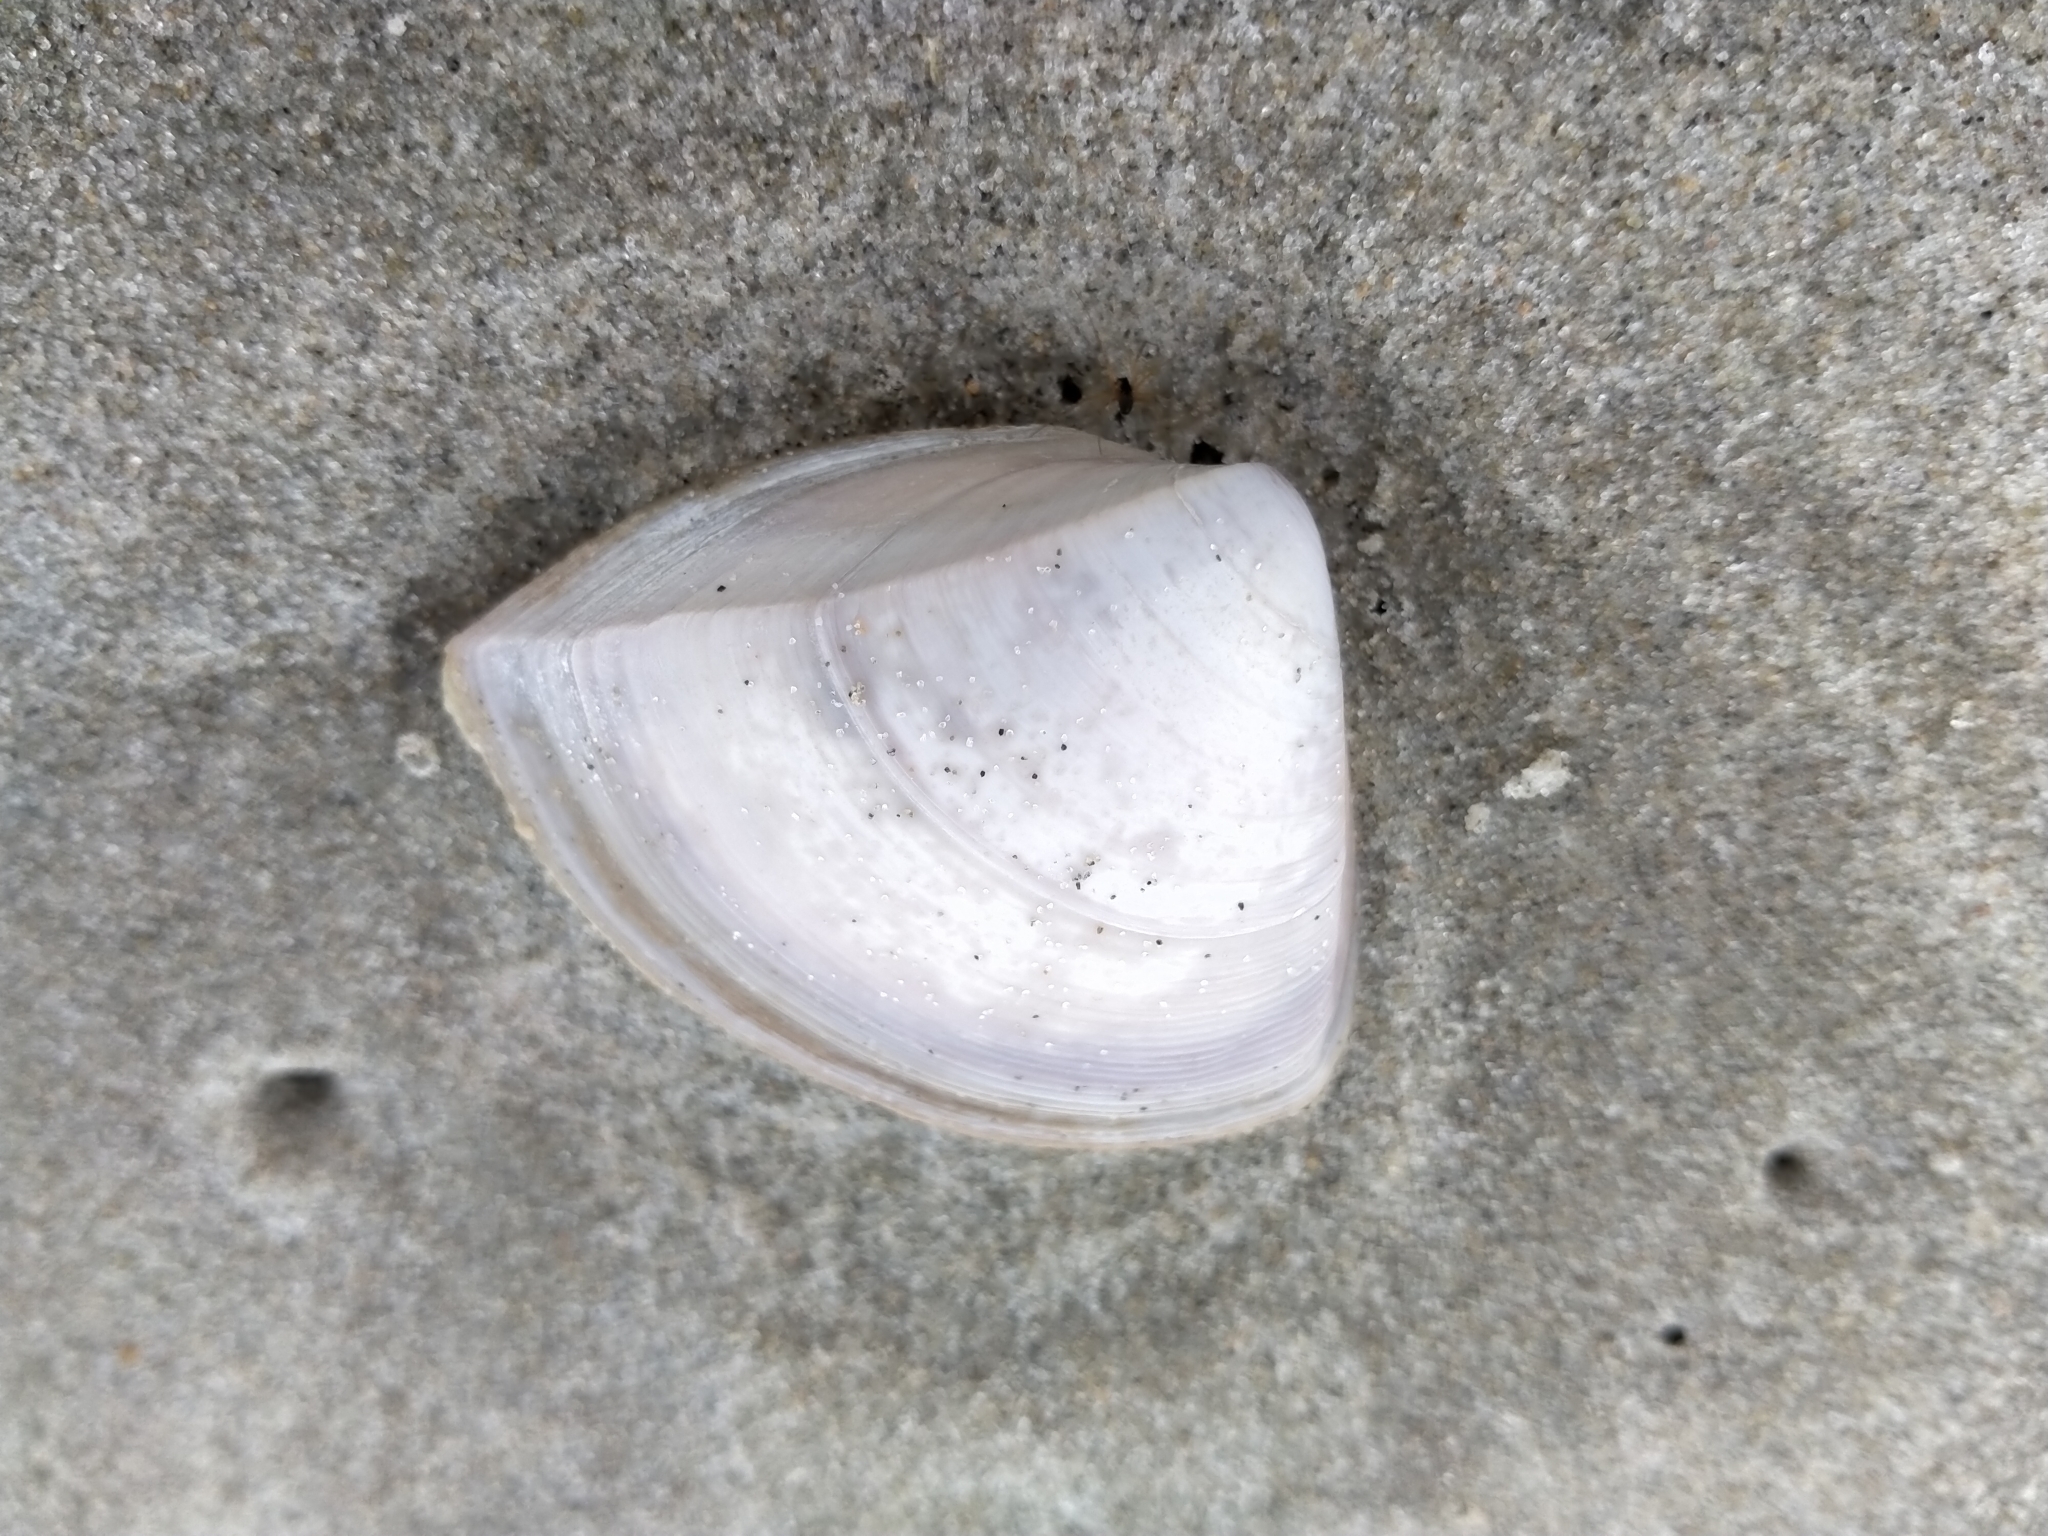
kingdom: Animalia
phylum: Mollusca
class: Bivalvia
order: Venerida
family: Mactridae
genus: Crassula
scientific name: Crassula aequilatera
